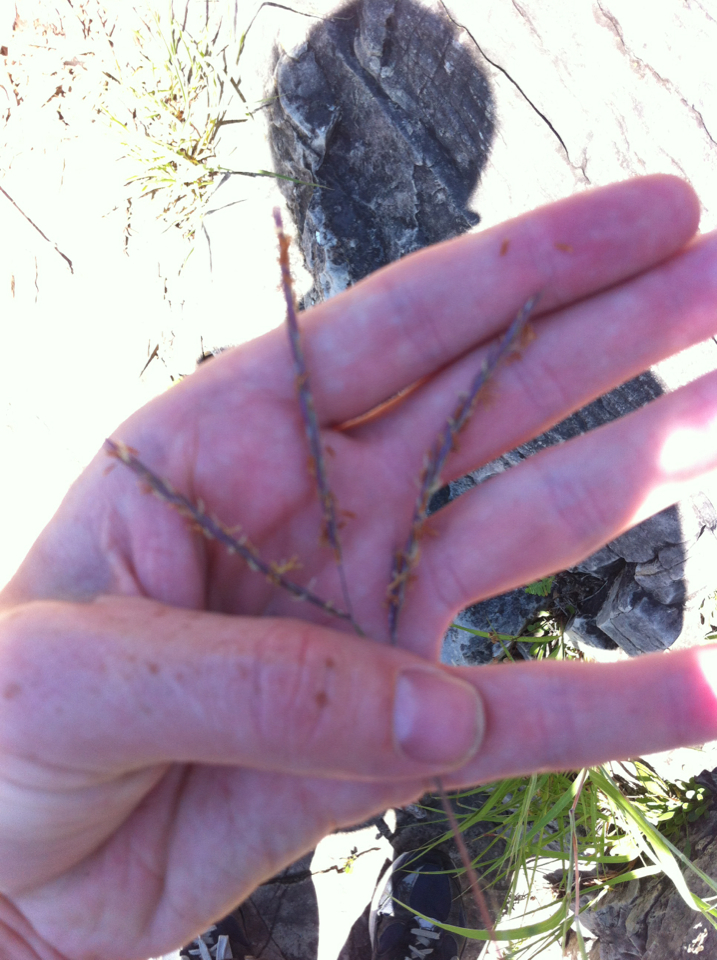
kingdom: Plantae
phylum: Tracheophyta
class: Liliopsida
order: Poales
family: Poaceae
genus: Andropogon
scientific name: Andropogon gerardi
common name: Big bluestem
